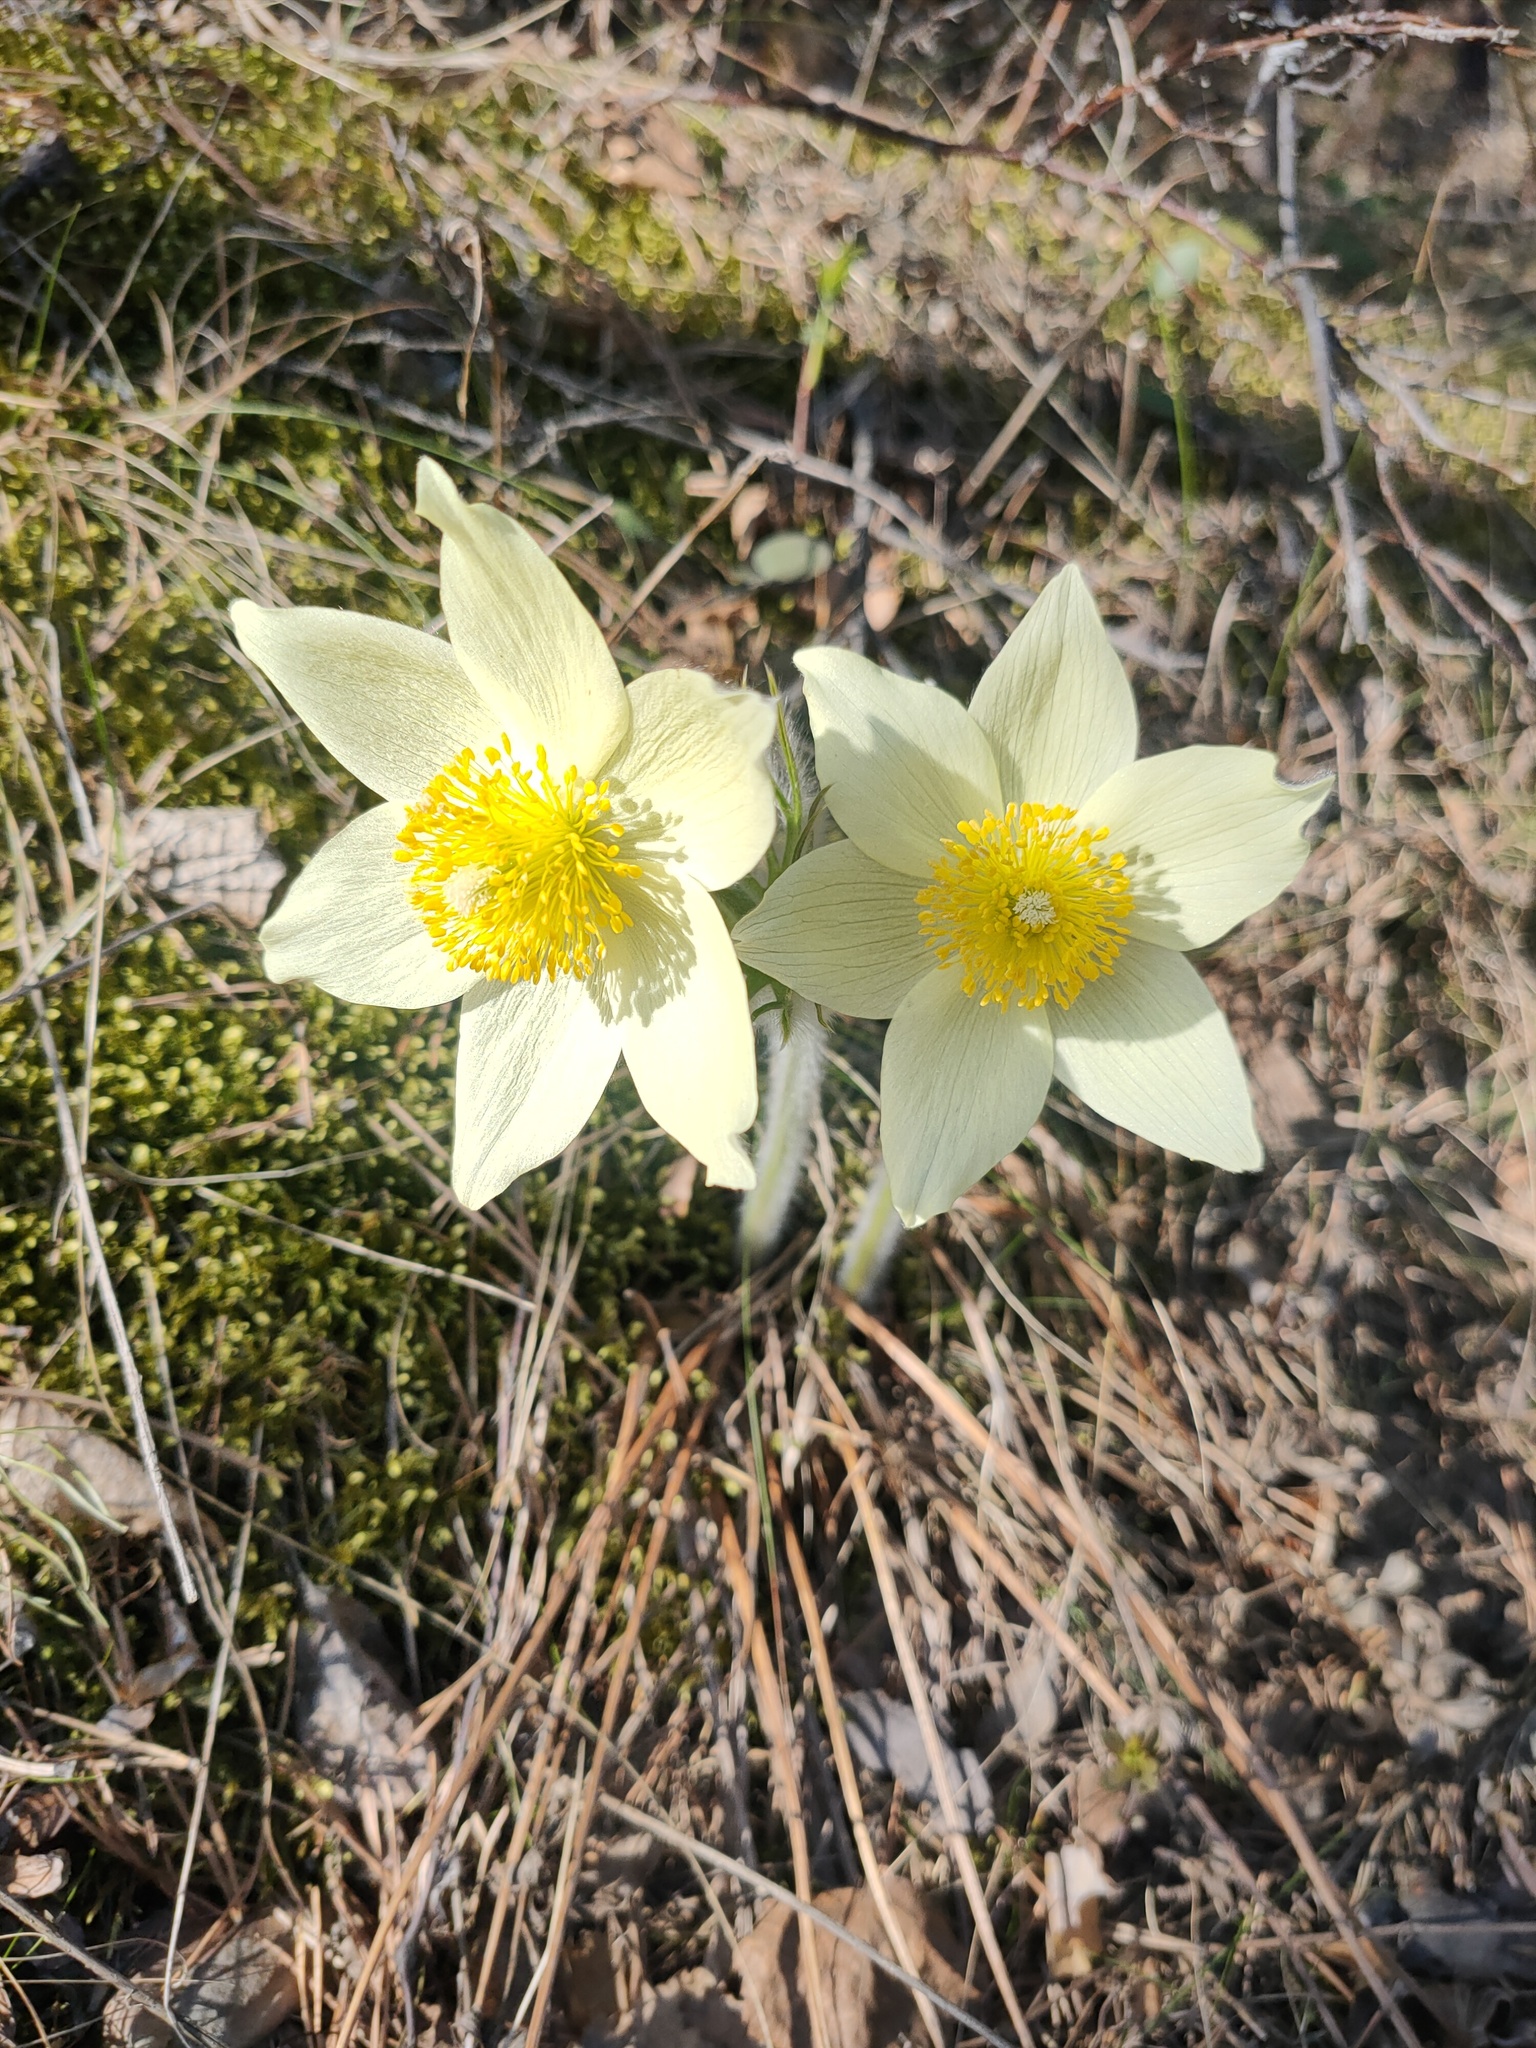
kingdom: Plantae
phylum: Tracheophyta
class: Magnoliopsida
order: Ranunculales
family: Ranunculaceae
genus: Pulsatilla
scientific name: Pulsatilla patens
